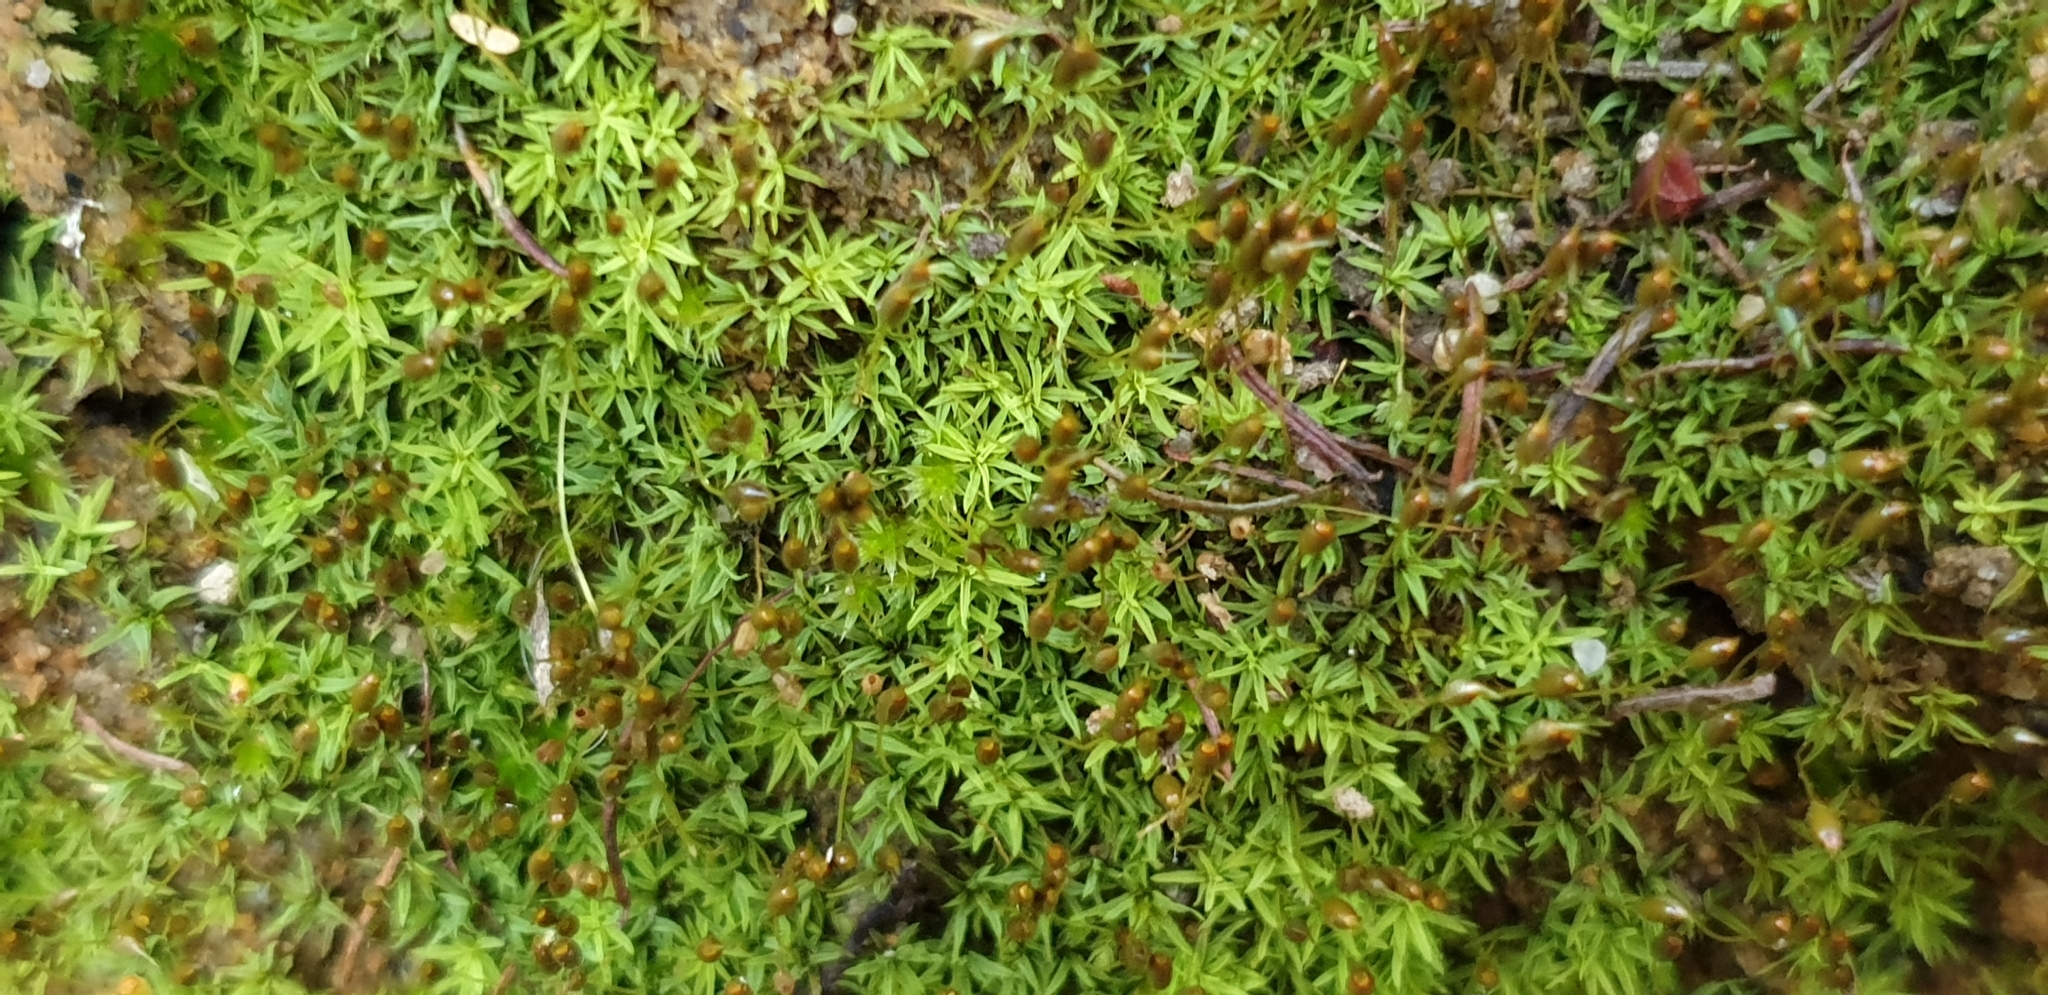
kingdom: Plantae
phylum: Bryophyta
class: Bryopsida
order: Pottiales
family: Pottiaceae
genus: Weissia
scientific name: Weissia controversa
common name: Green-tufted stubble moss
